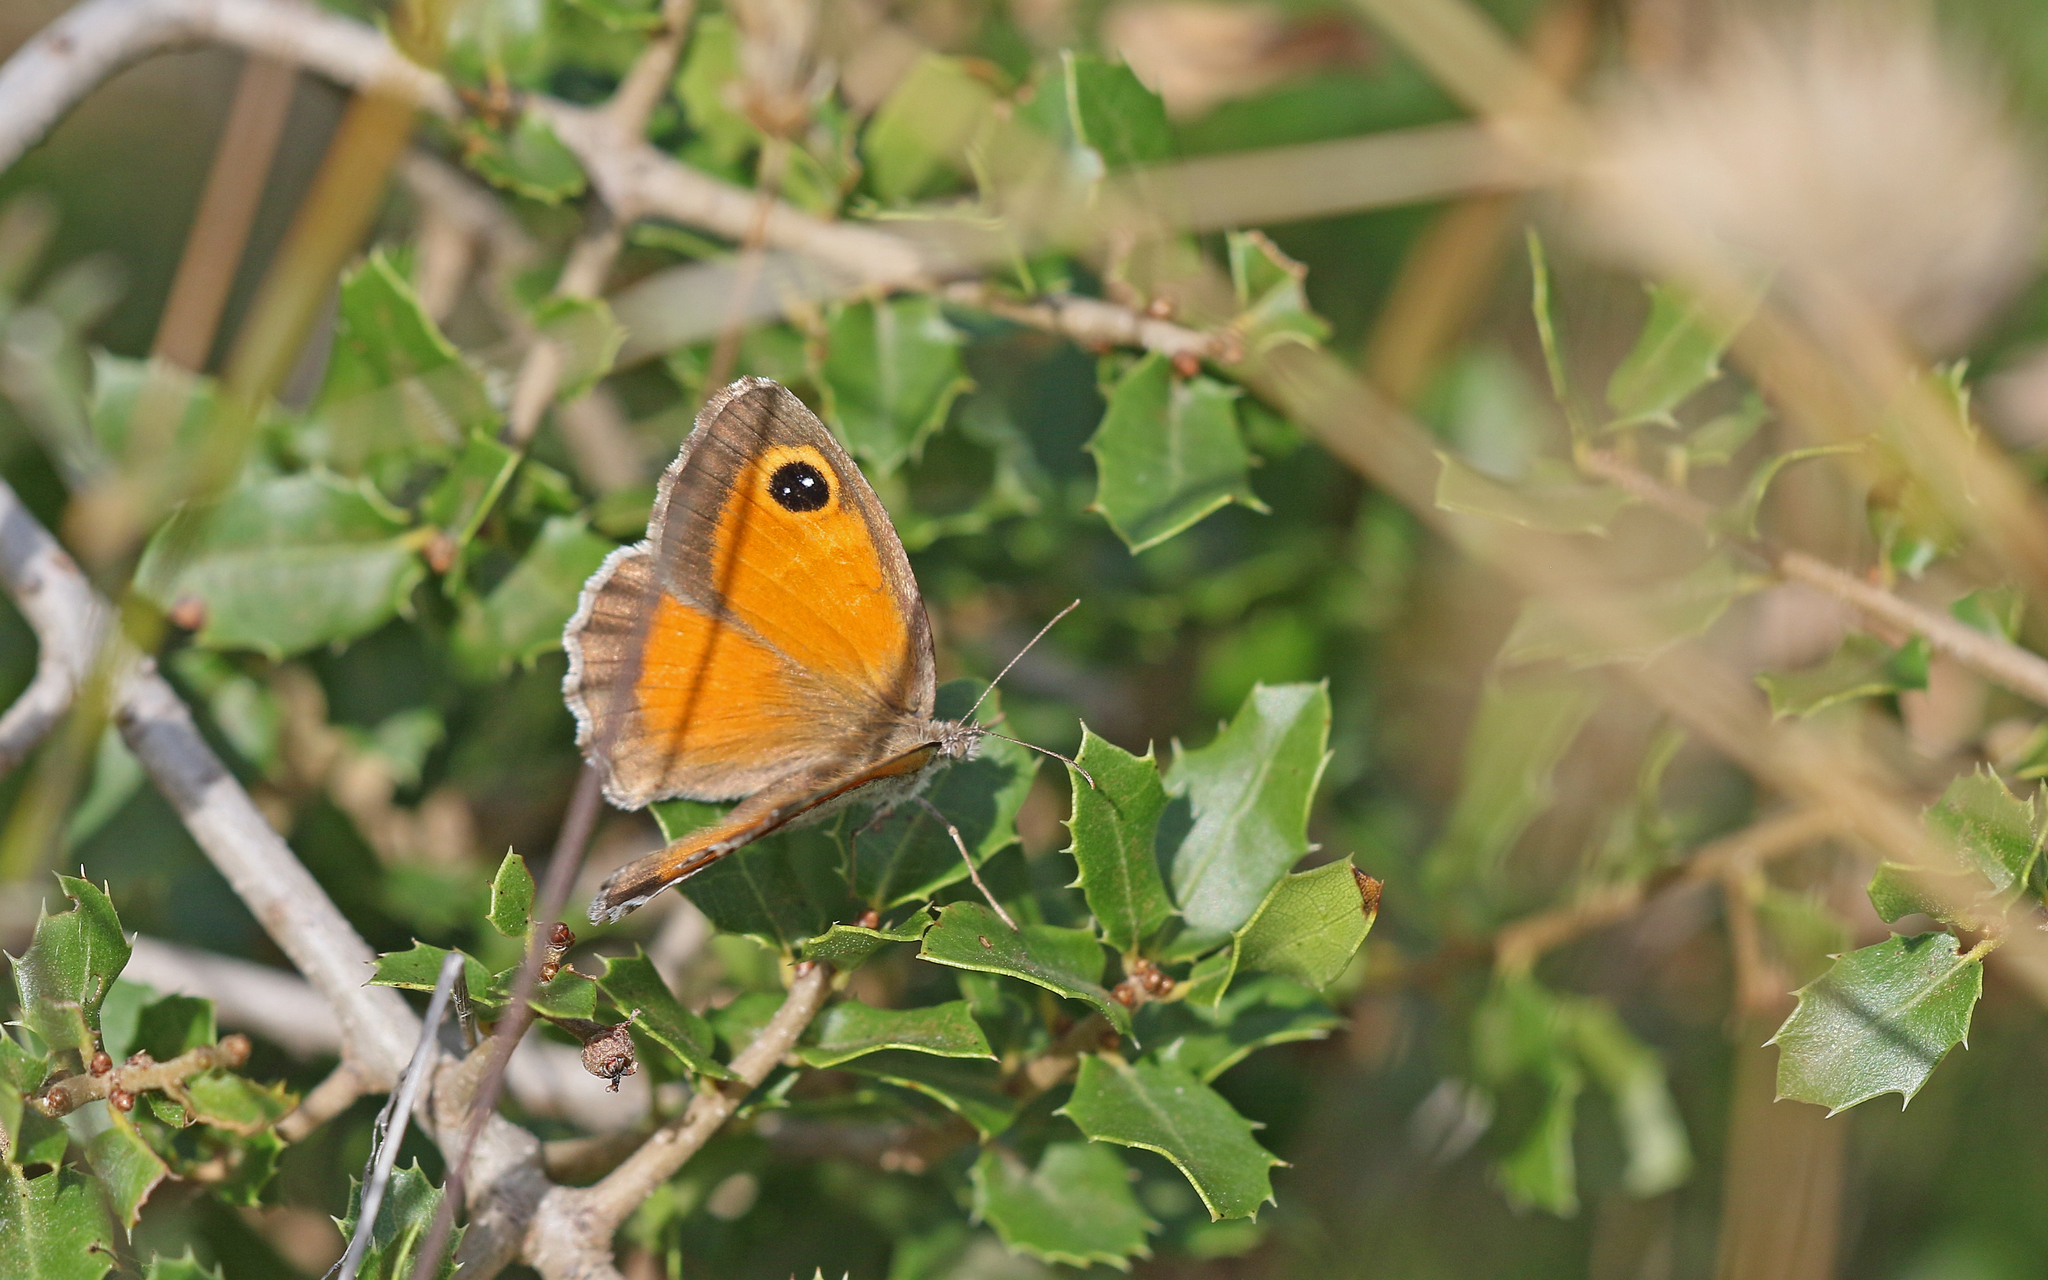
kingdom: Animalia
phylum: Arthropoda
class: Insecta
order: Lepidoptera
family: Nymphalidae
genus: Pyronia
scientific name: Pyronia cecilia
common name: Southern gatekeeper
